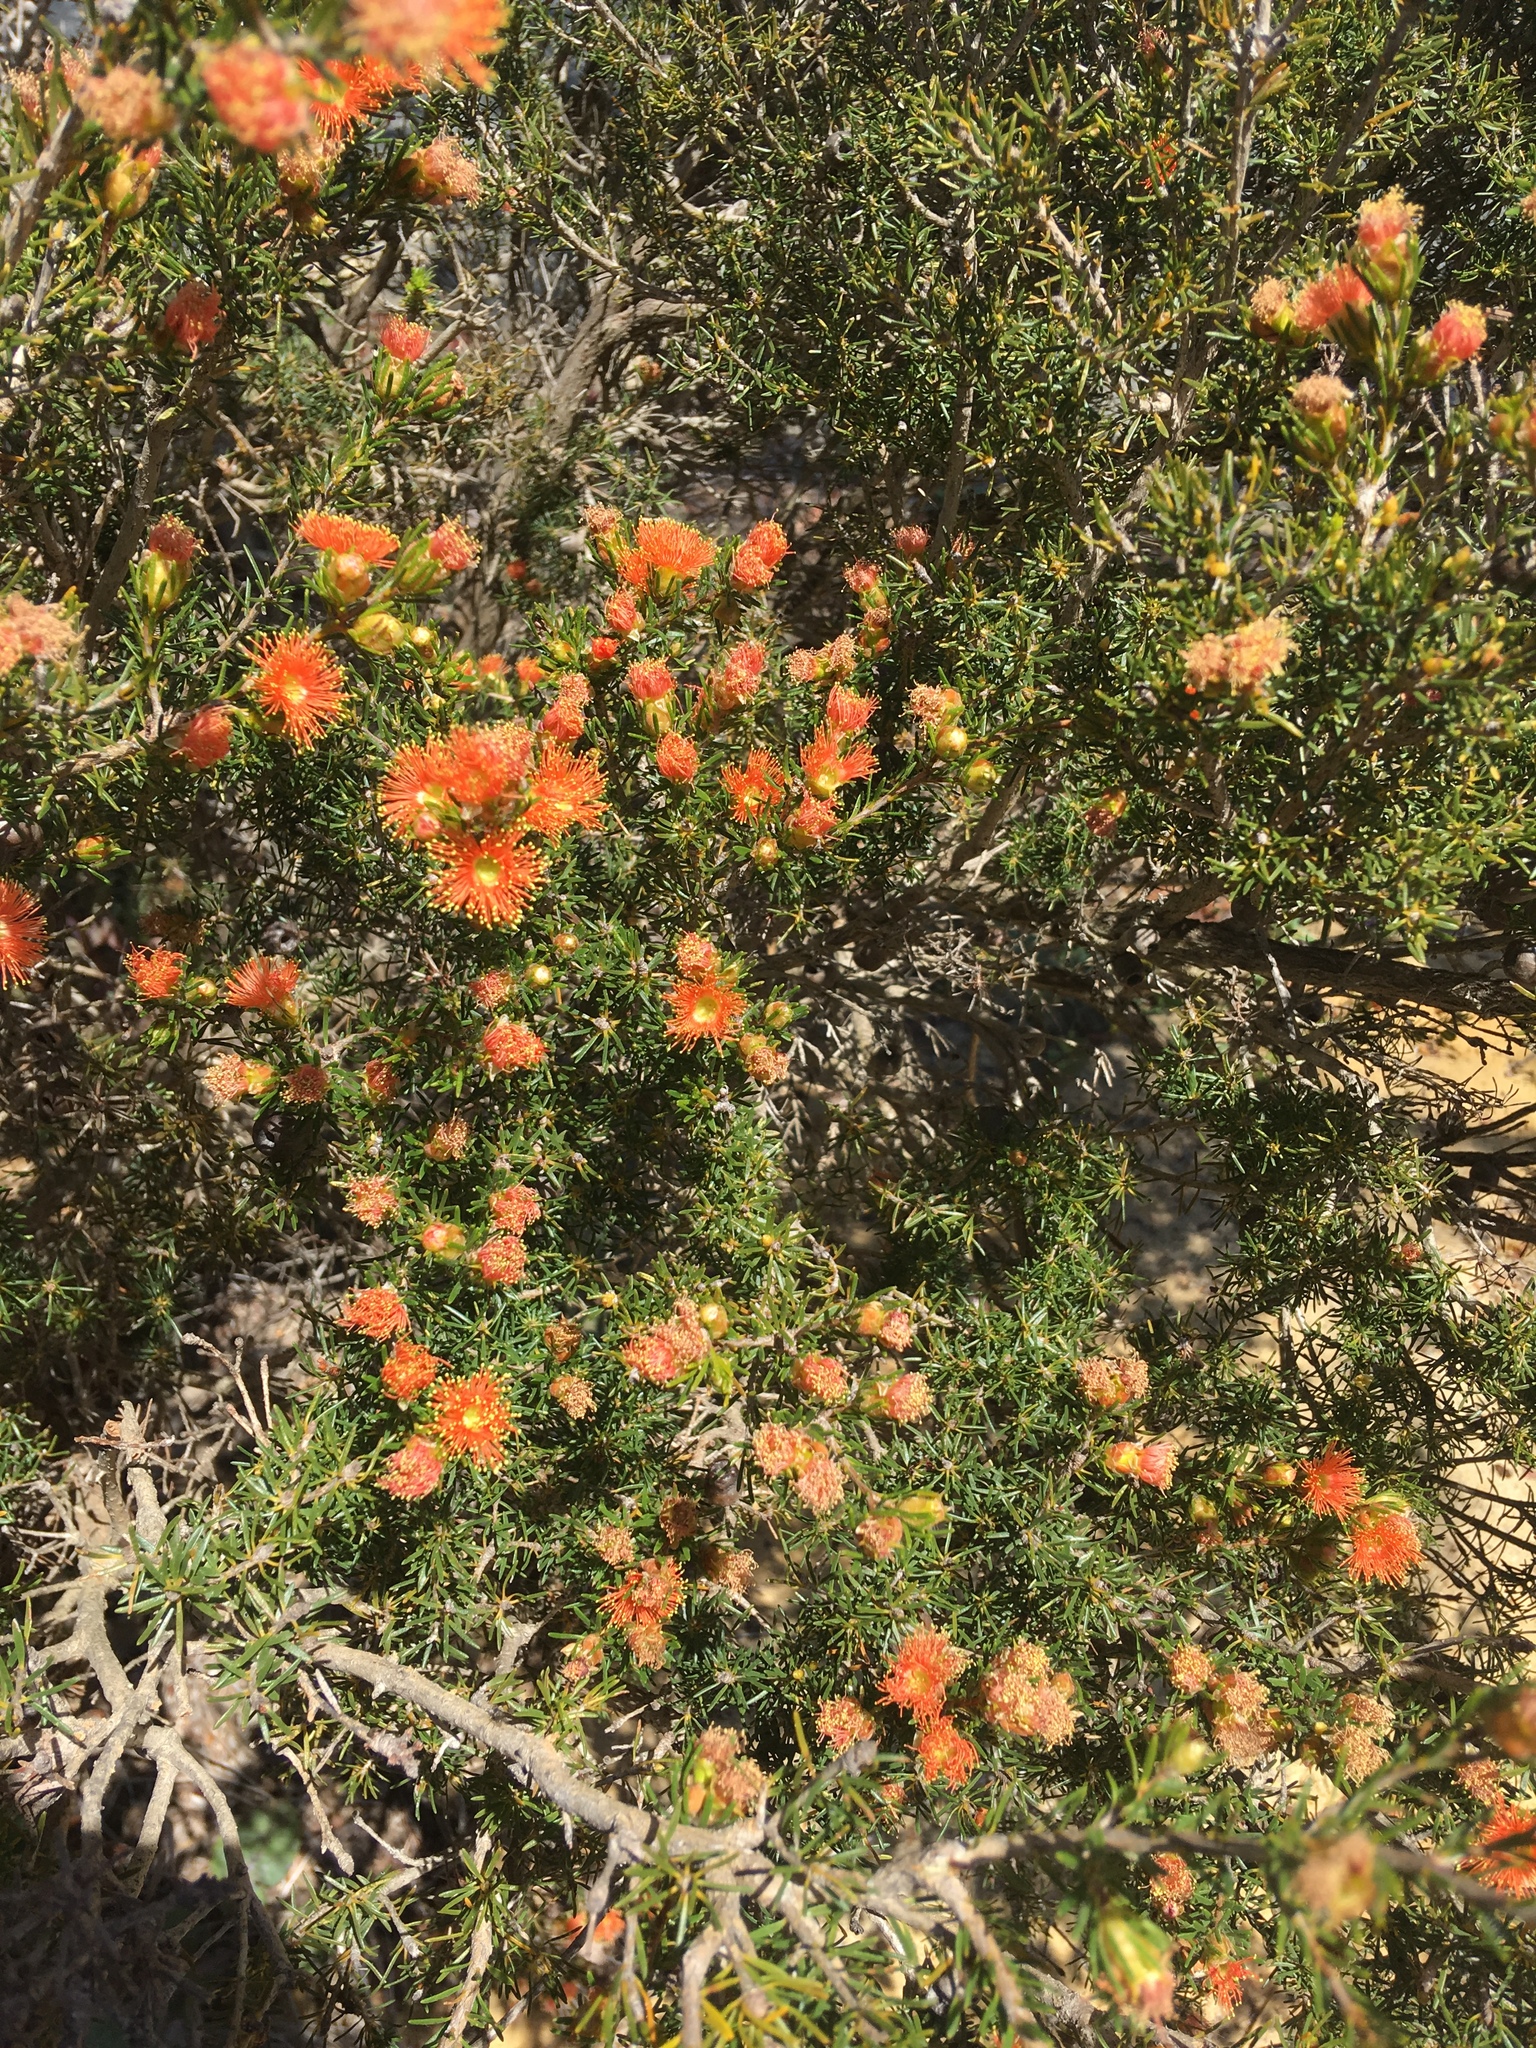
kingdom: Plantae
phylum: Tracheophyta
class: Magnoliopsida
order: Myrtales
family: Myrtaceae
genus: Melaleuca
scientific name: Melaleuca rariflora
